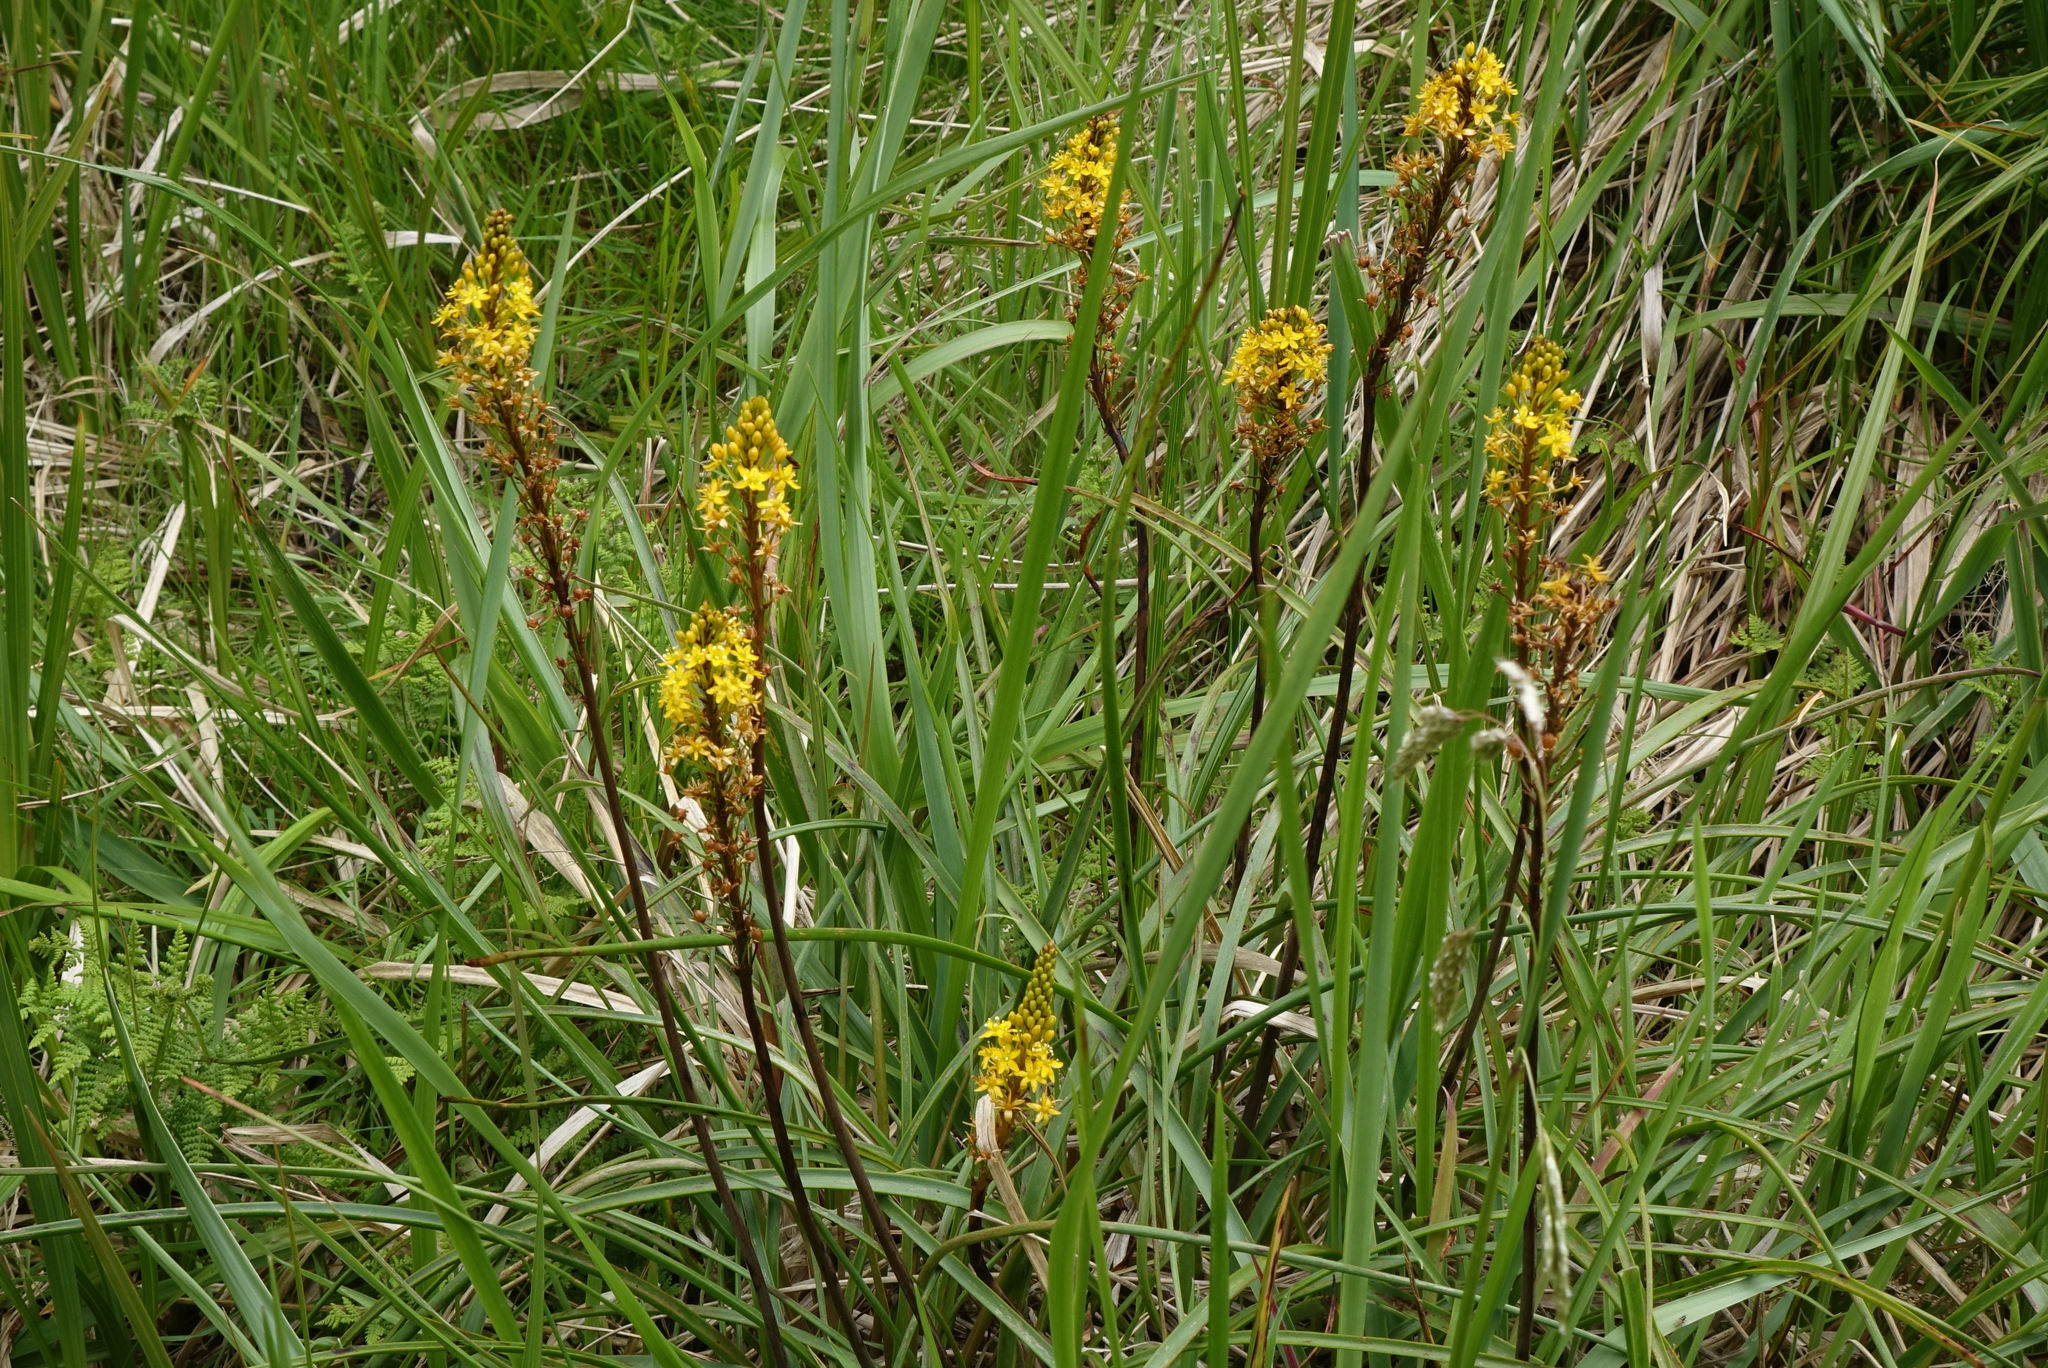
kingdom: Plantae
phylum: Tracheophyta
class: Liliopsida
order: Asparagales
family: Asphodelaceae
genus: Bulbinella
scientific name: Bulbinella angustifolia
